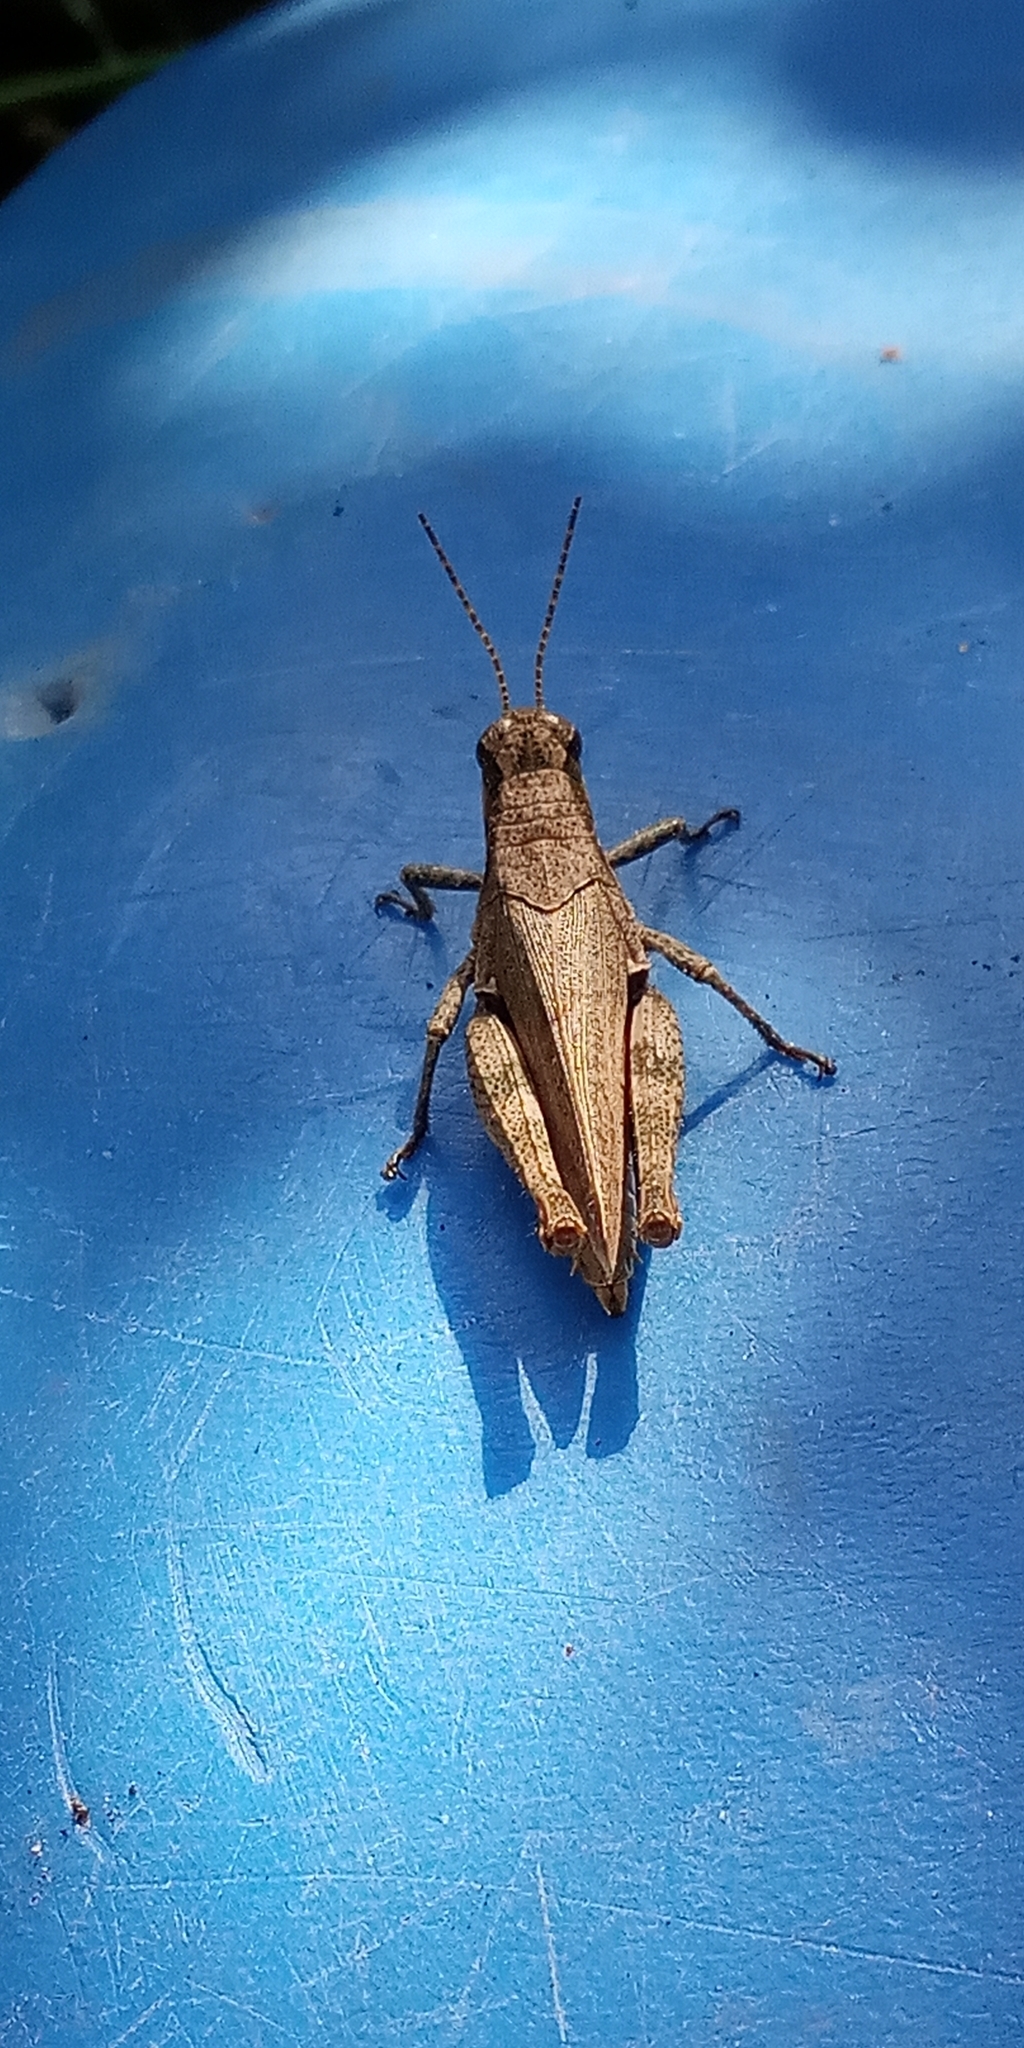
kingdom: Animalia
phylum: Arthropoda
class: Insecta
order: Orthoptera
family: Acrididae
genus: Ronderosia
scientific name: Ronderosia bergii
